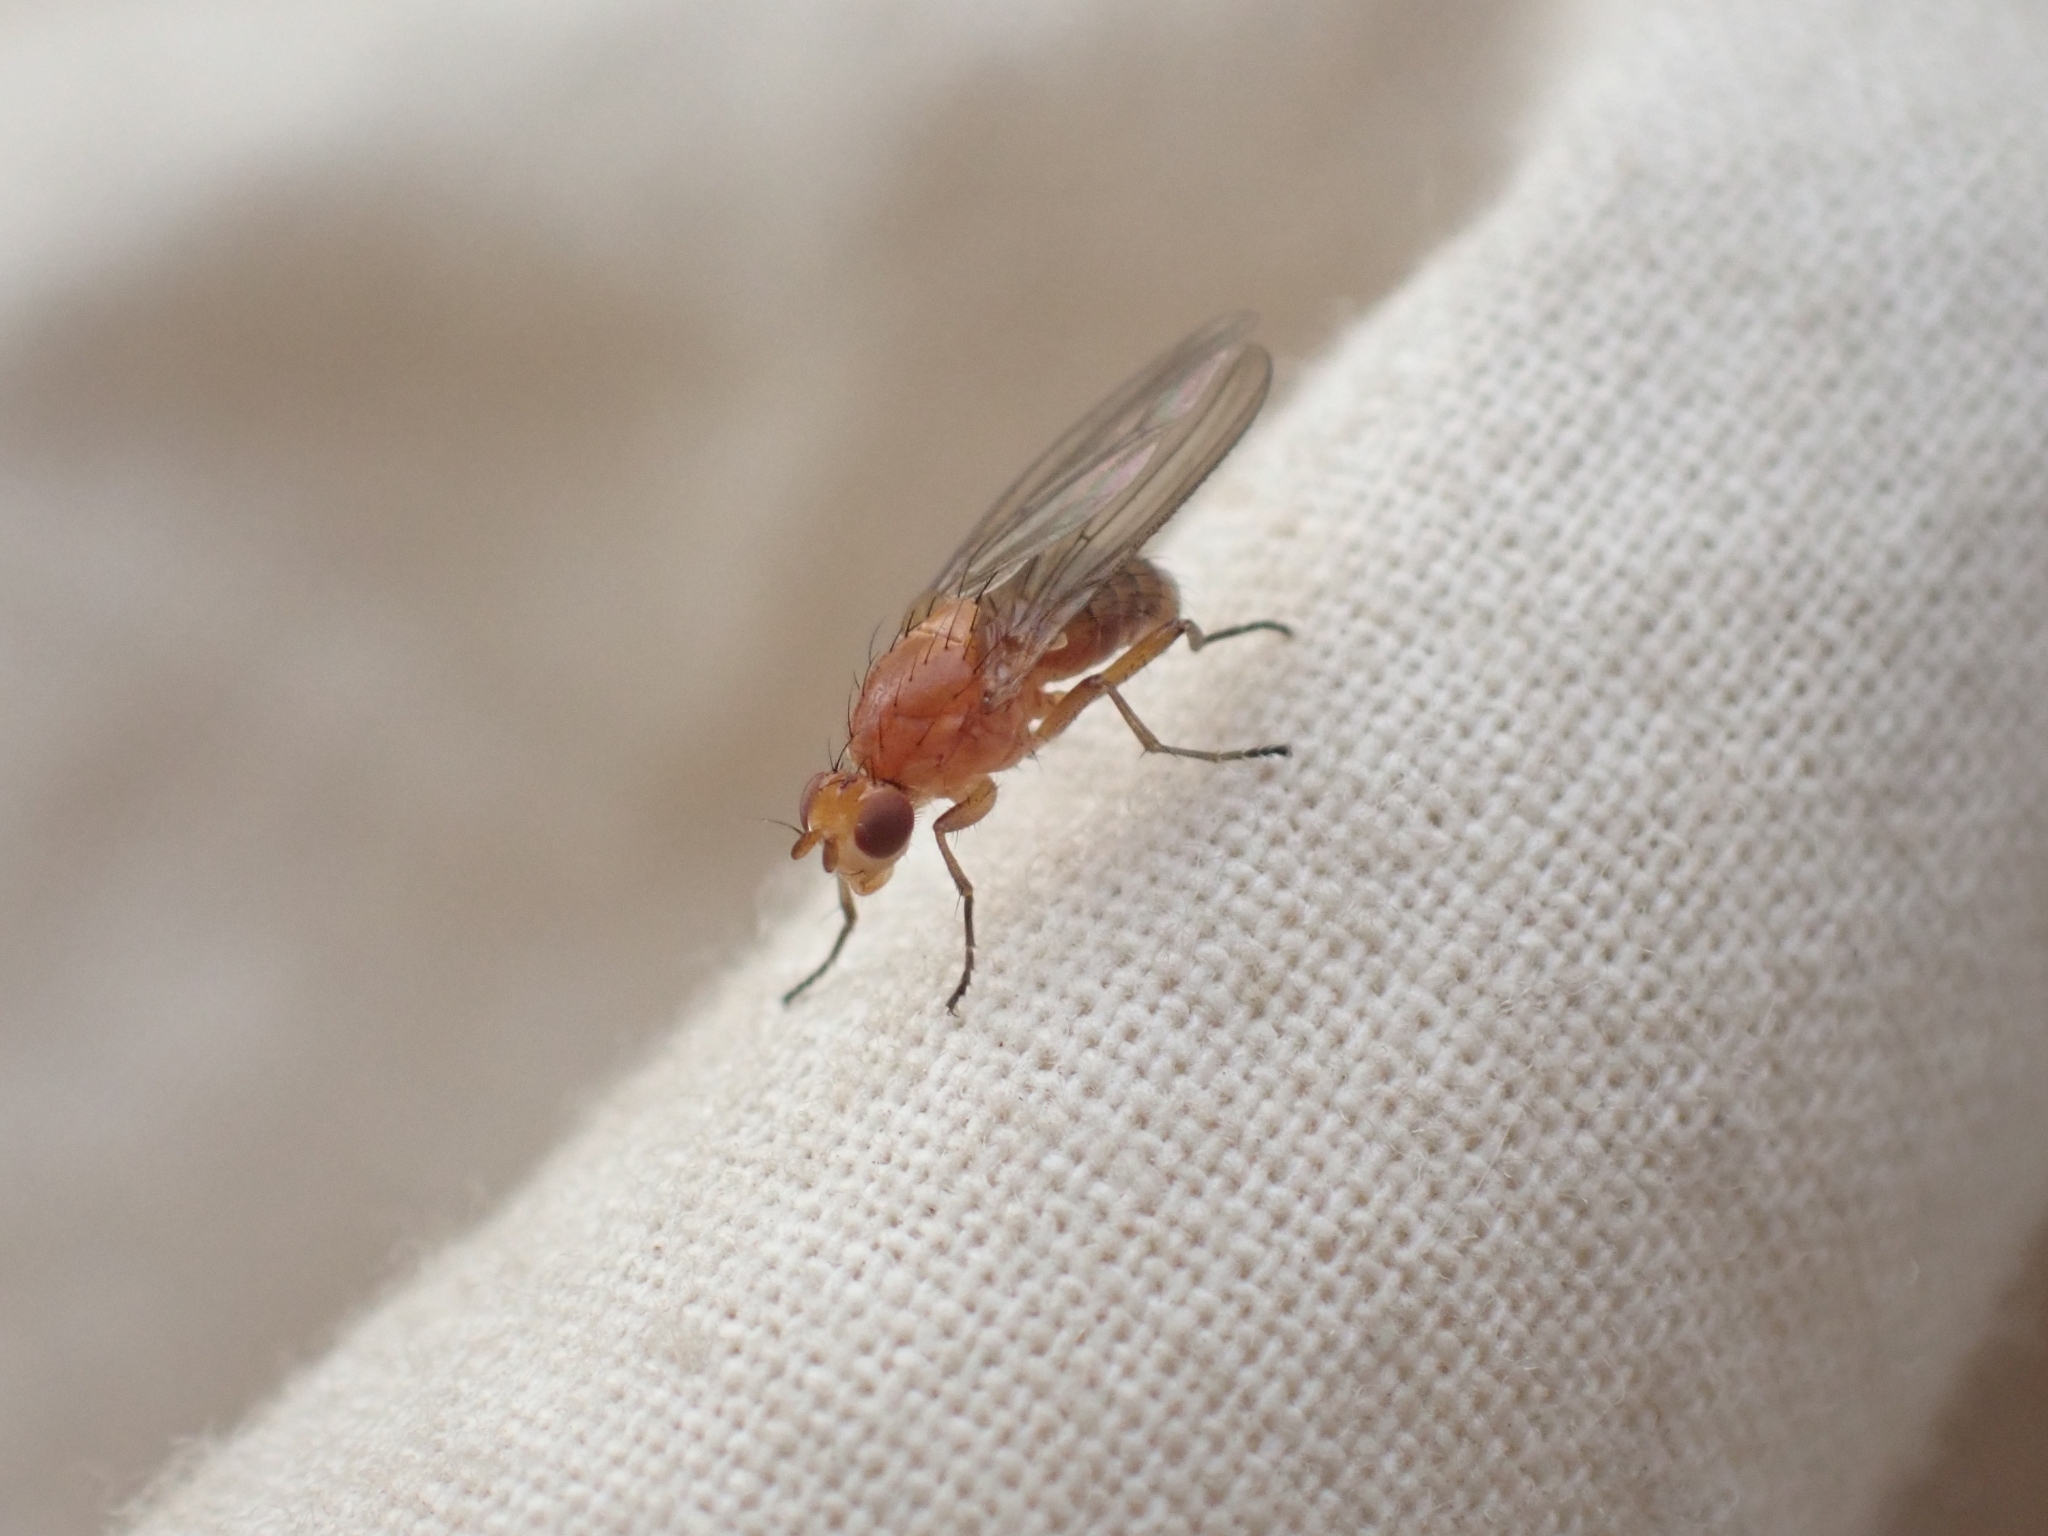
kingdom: Animalia
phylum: Arthropoda
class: Insecta
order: Diptera
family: Heleomyzidae
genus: Suillia
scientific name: Suillia convergens
